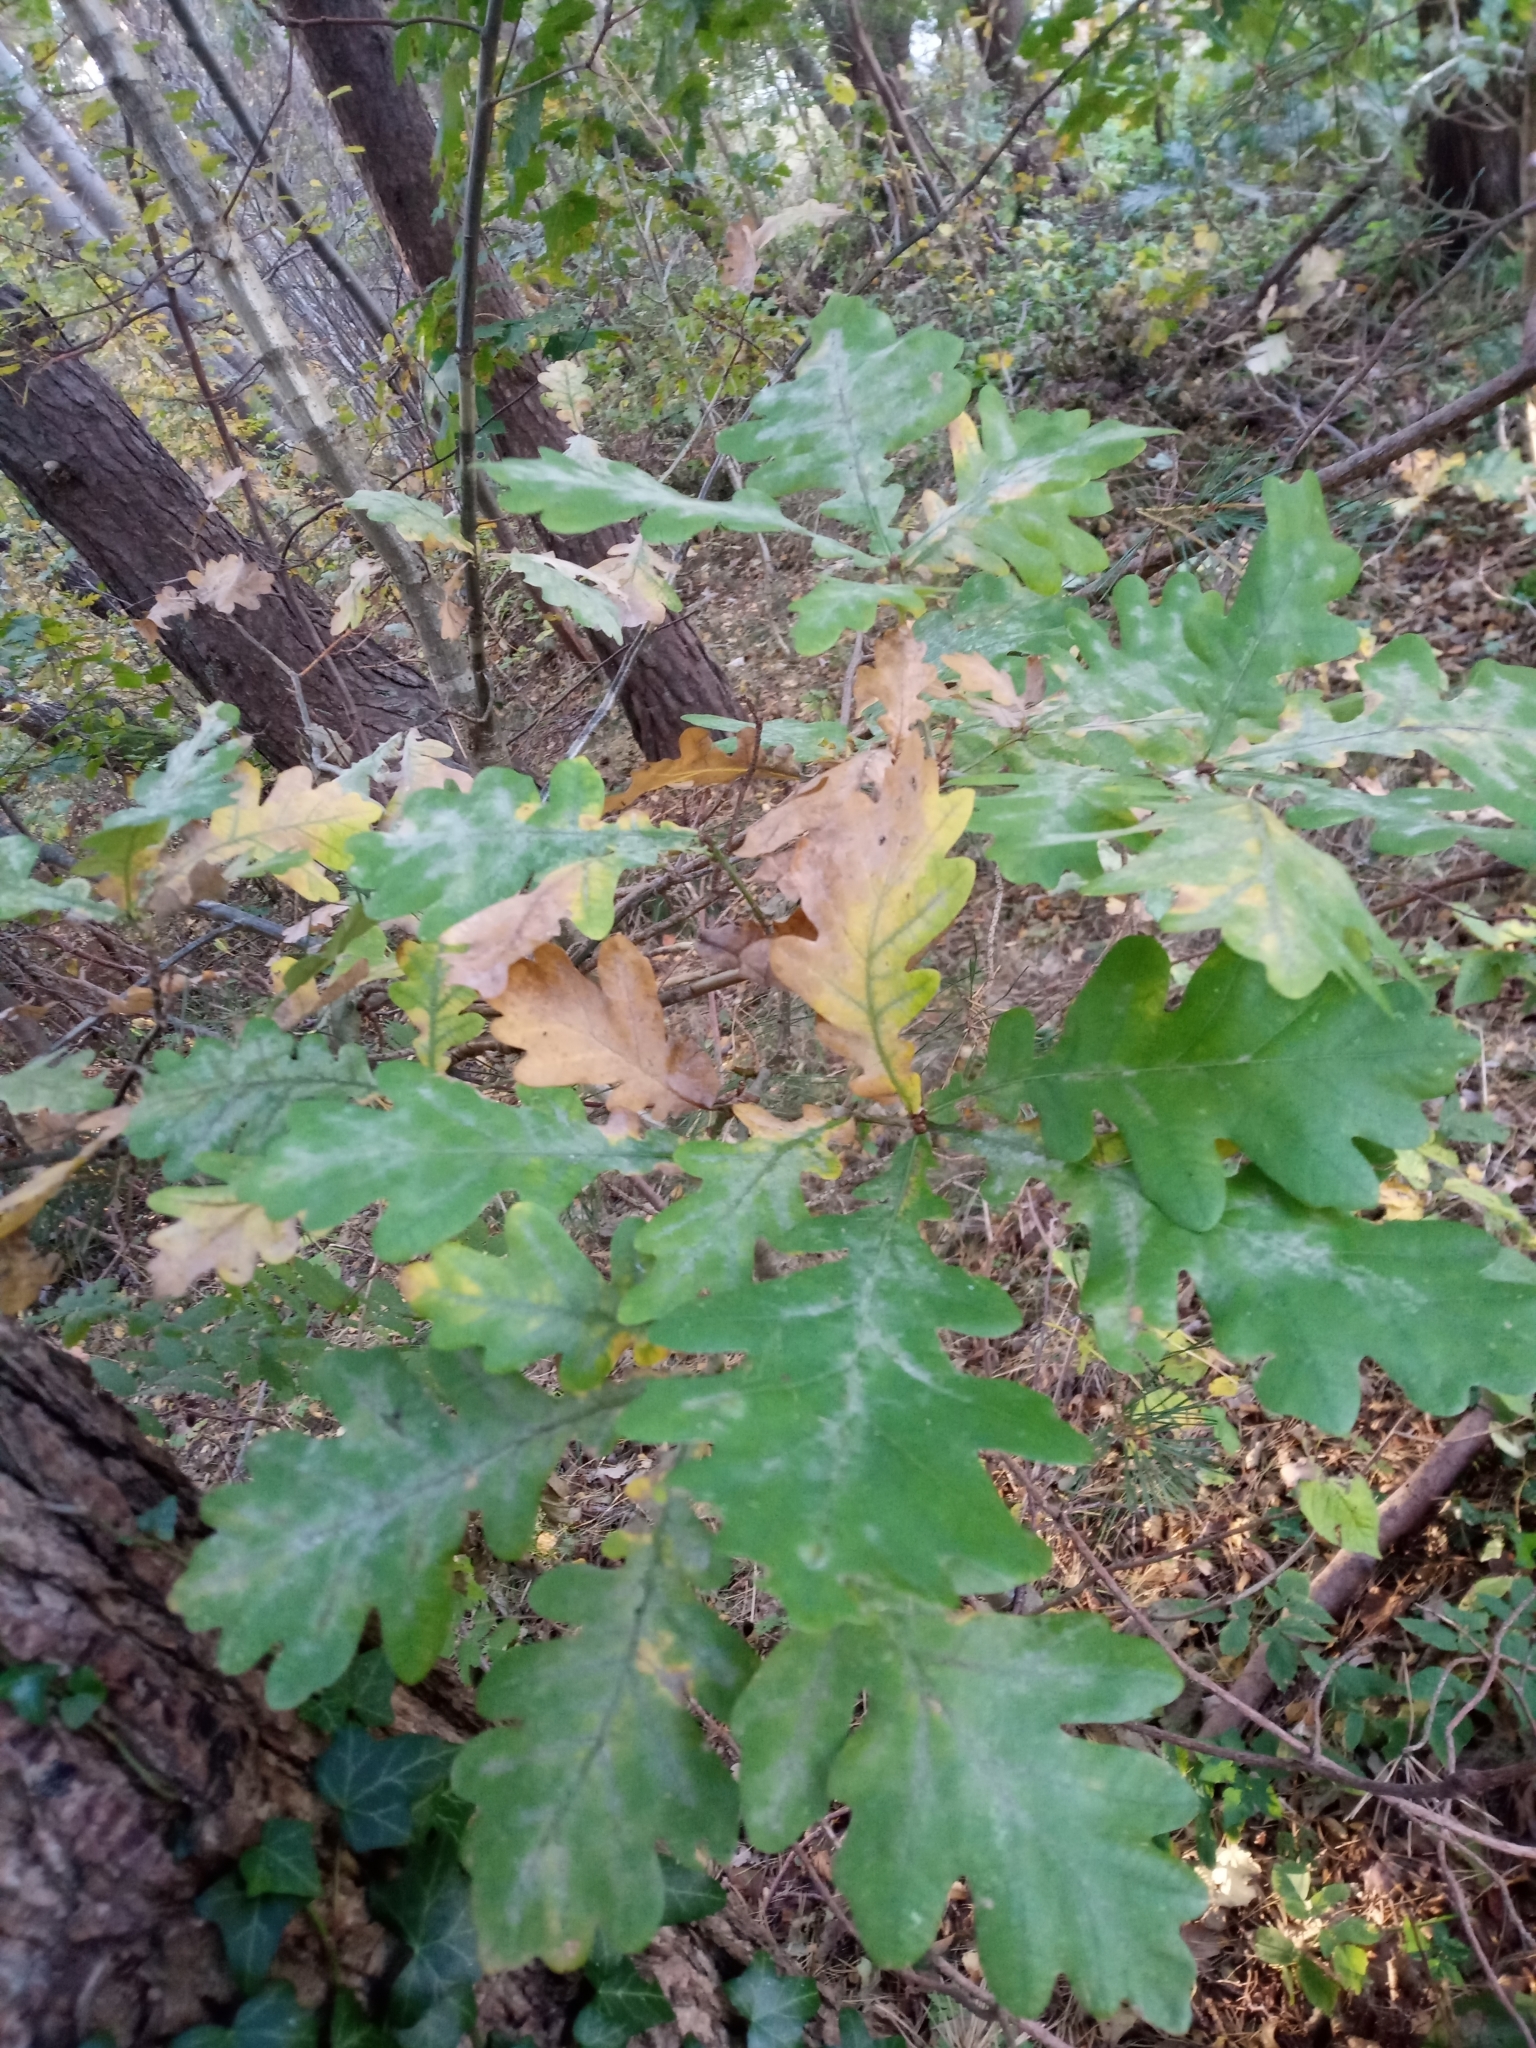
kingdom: Plantae
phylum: Tracheophyta
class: Magnoliopsida
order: Fagales
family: Fagaceae
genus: Quercus
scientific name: Quercus robur
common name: Pedunculate oak
